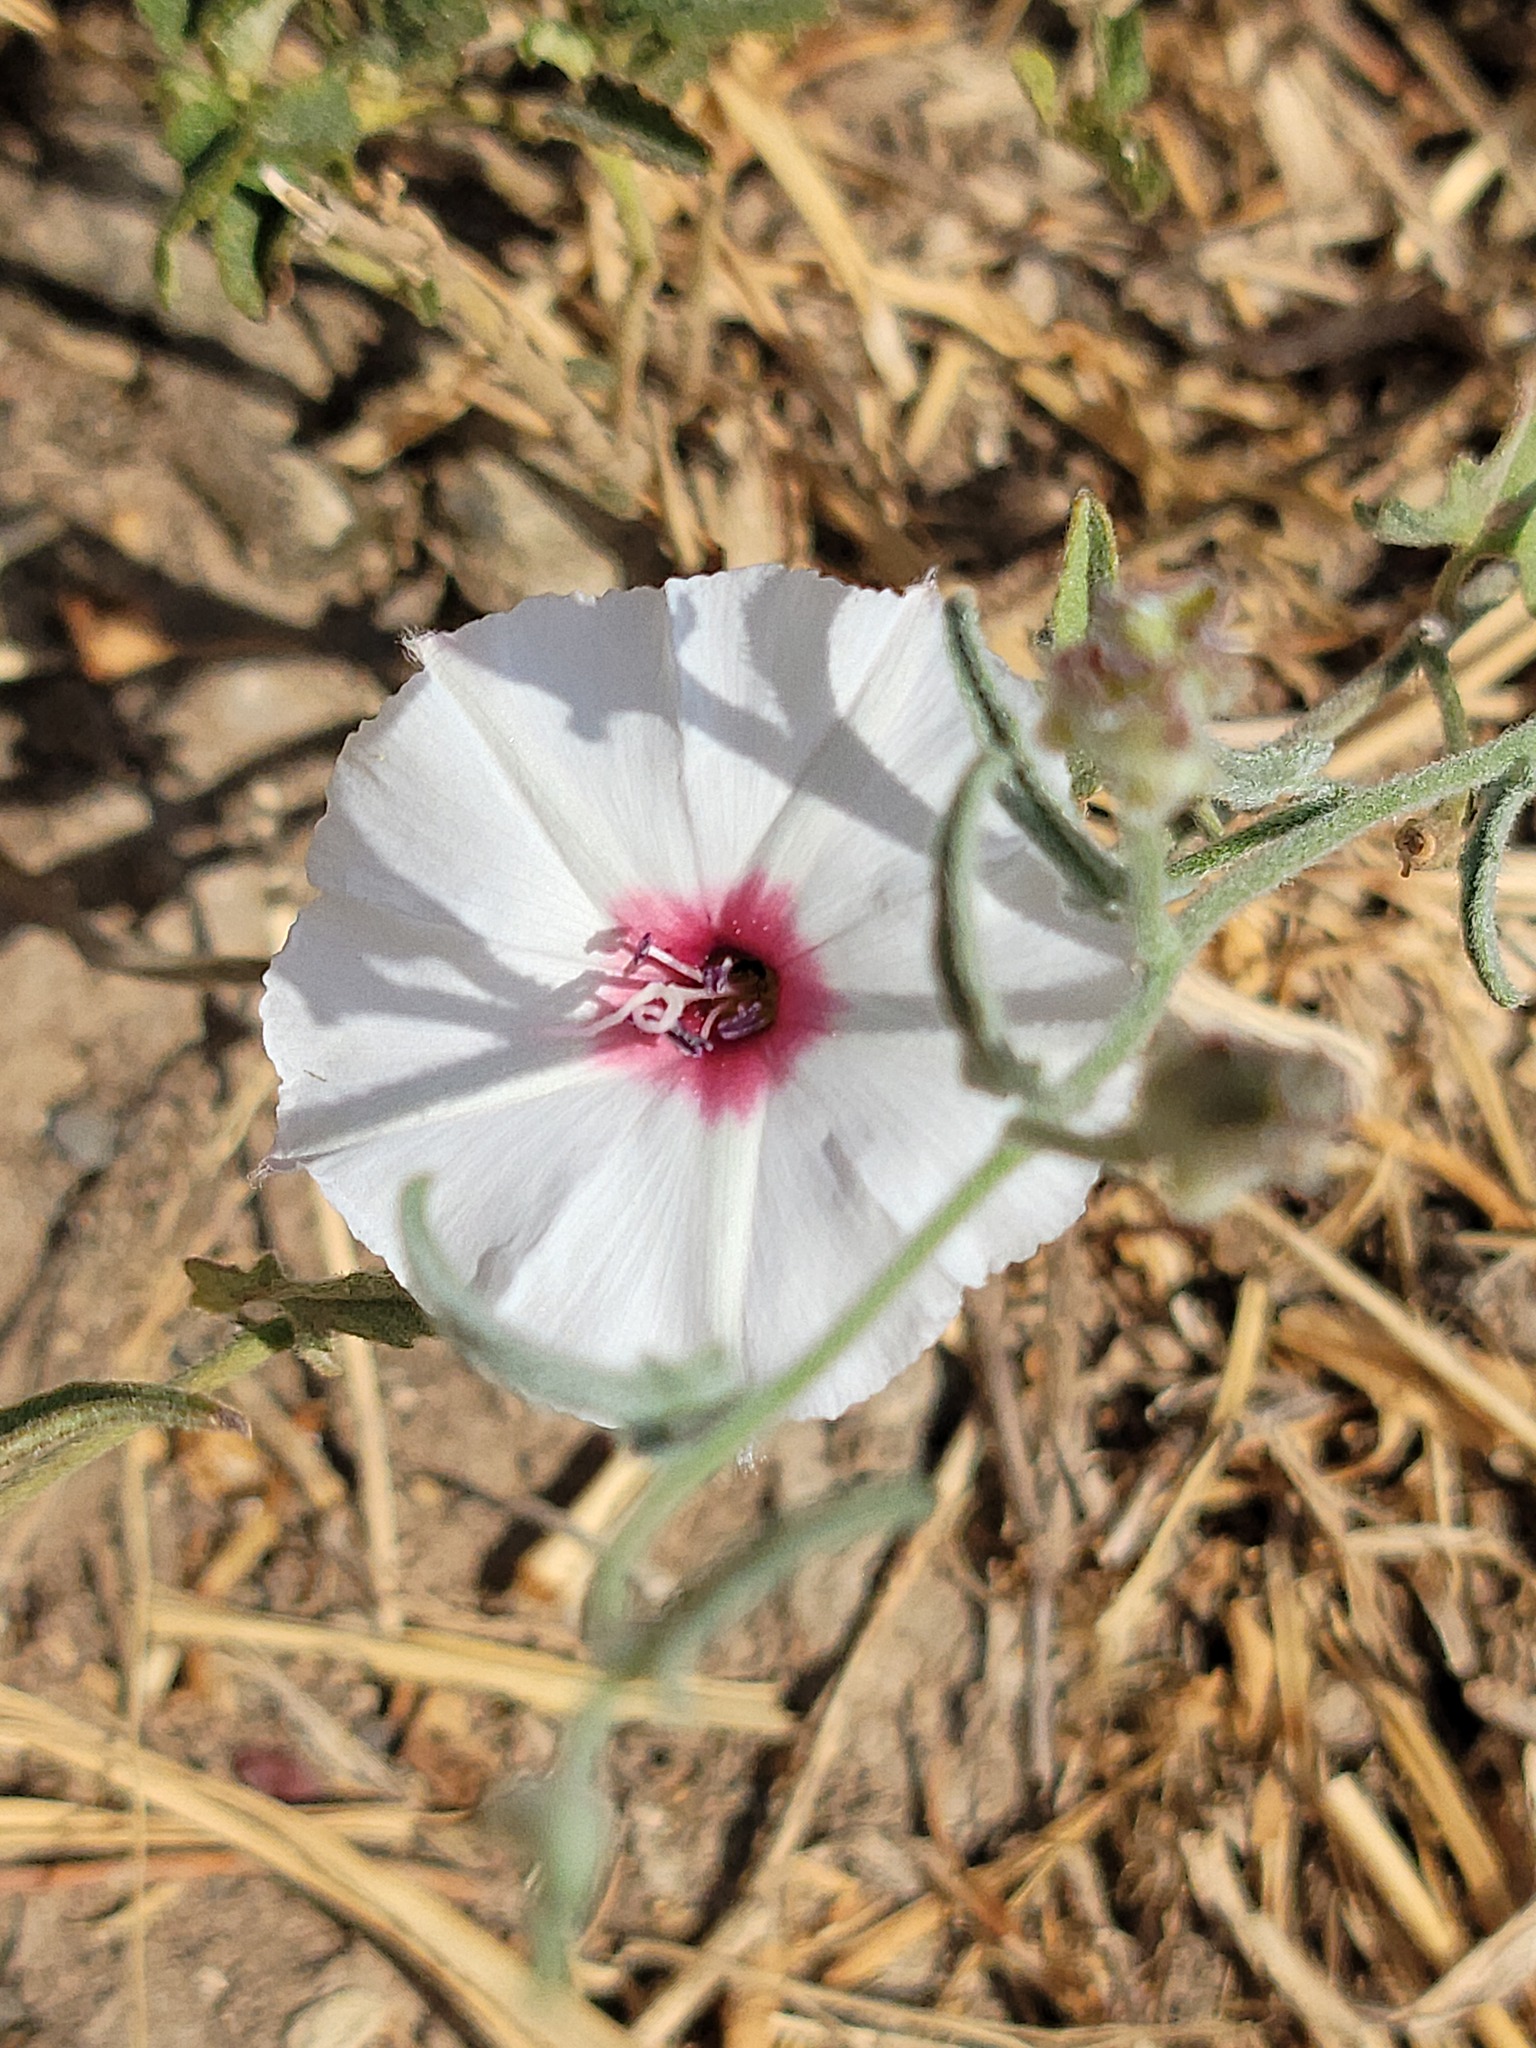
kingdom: Plantae
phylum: Tracheophyta
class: Magnoliopsida
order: Solanales
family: Convolvulaceae
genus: Convolvulus
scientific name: Convolvulus equitans
